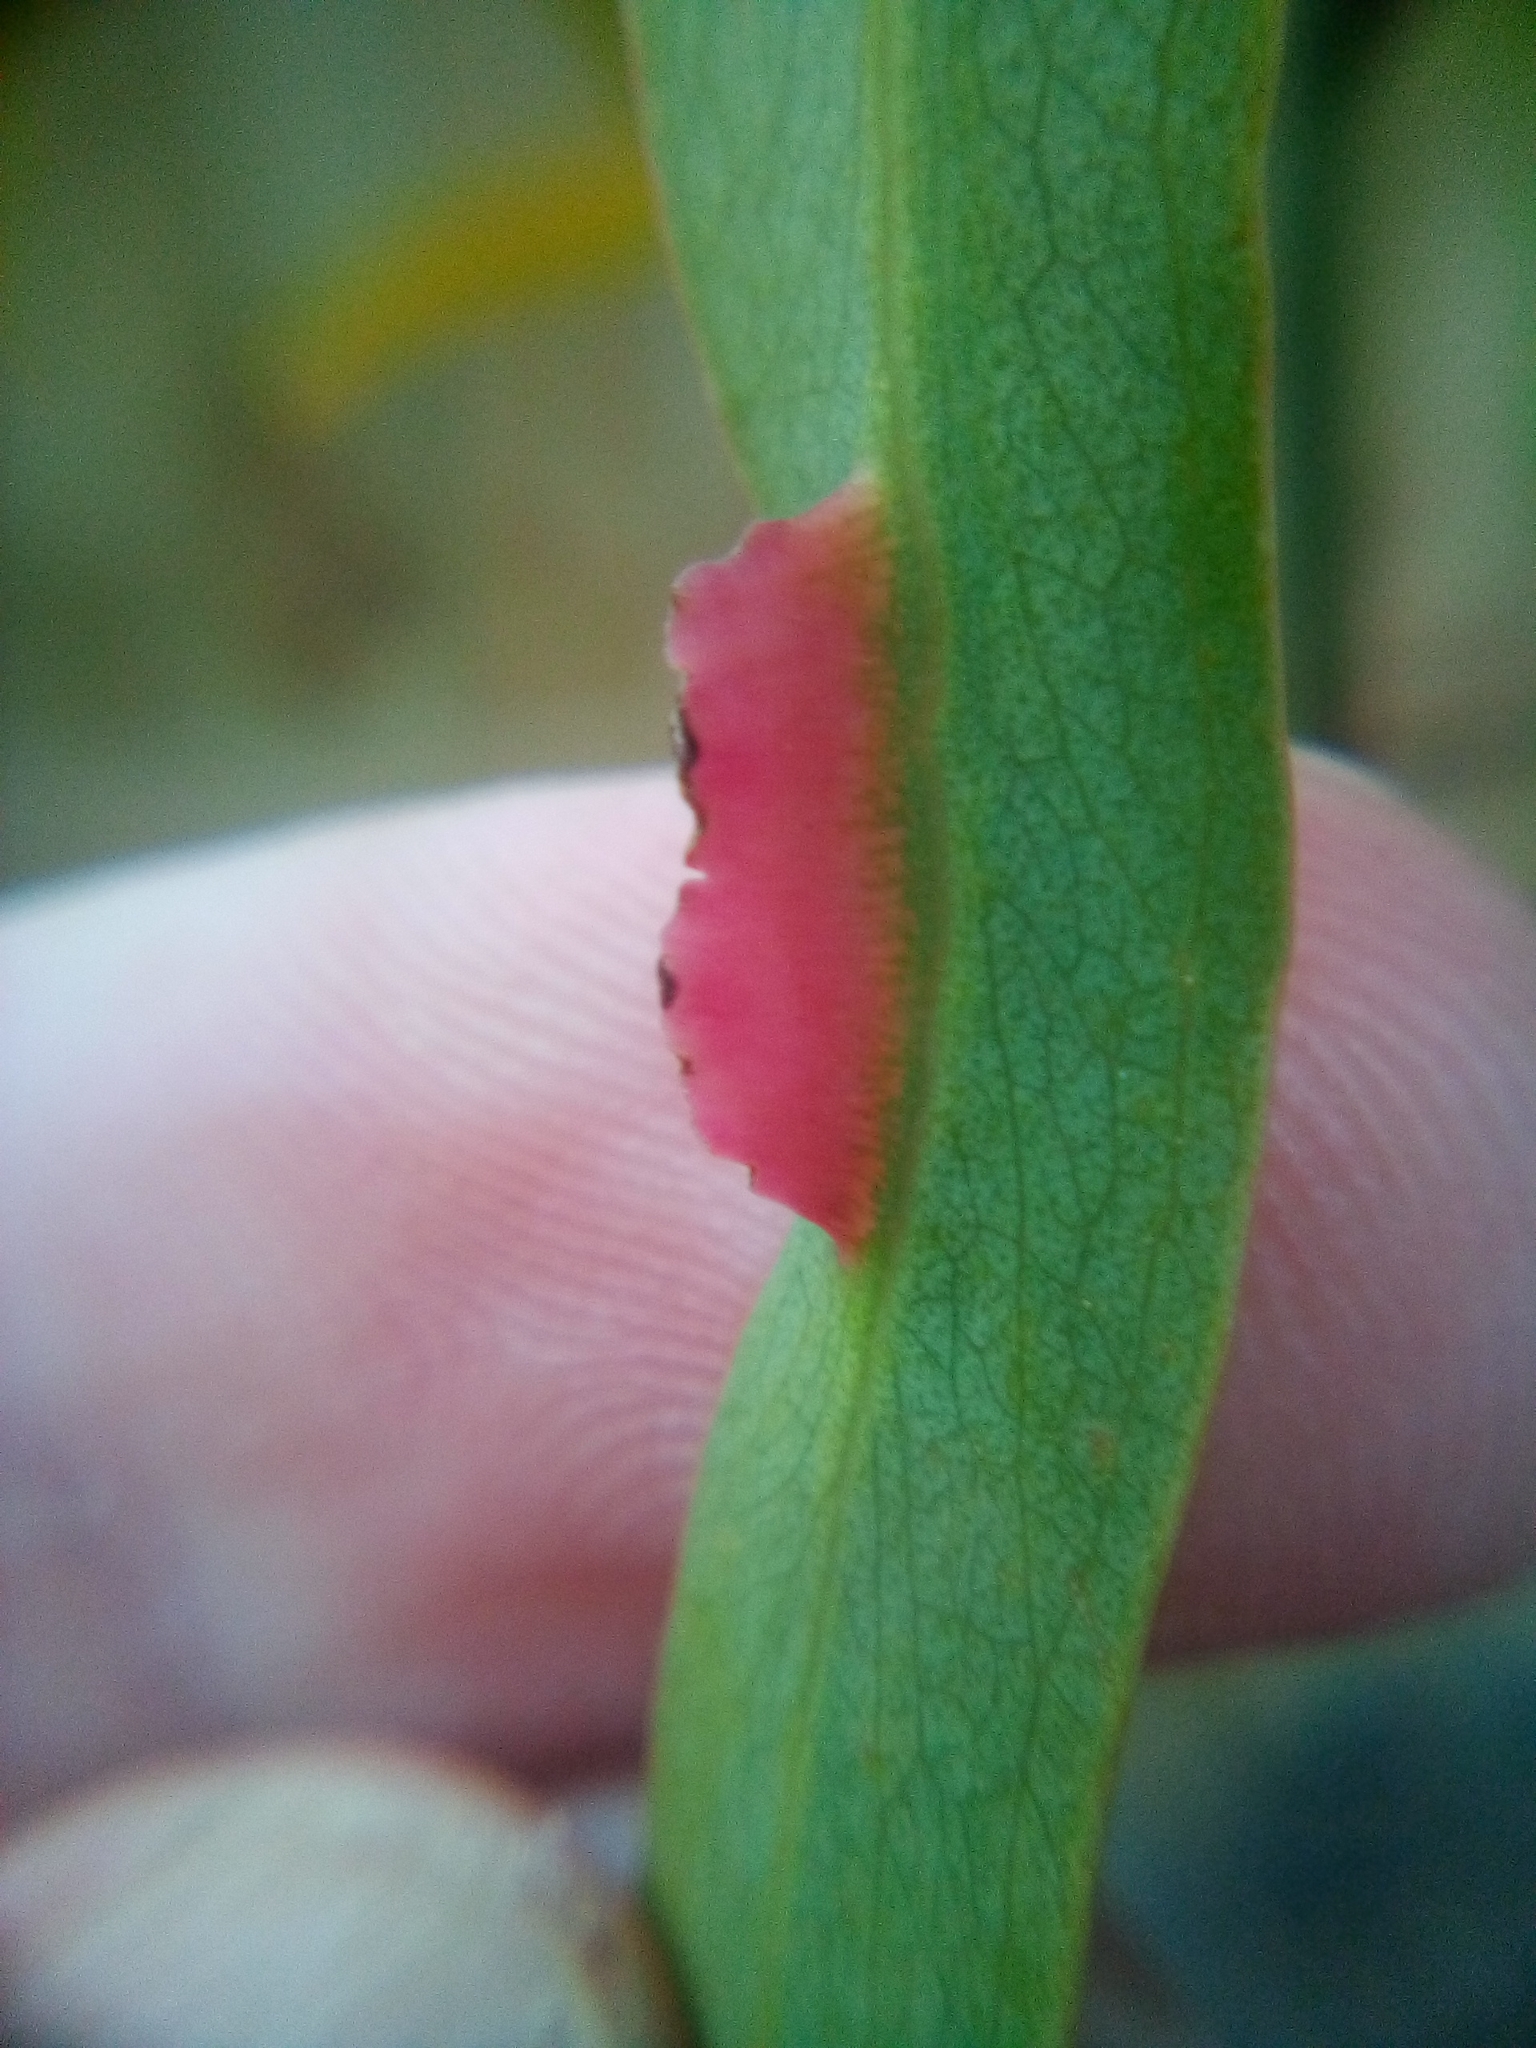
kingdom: Animalia
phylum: Arthropoda
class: Insecta
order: Hymenoptera
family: Pteromalidae
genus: Nambouria
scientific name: Nambouria xanthops
